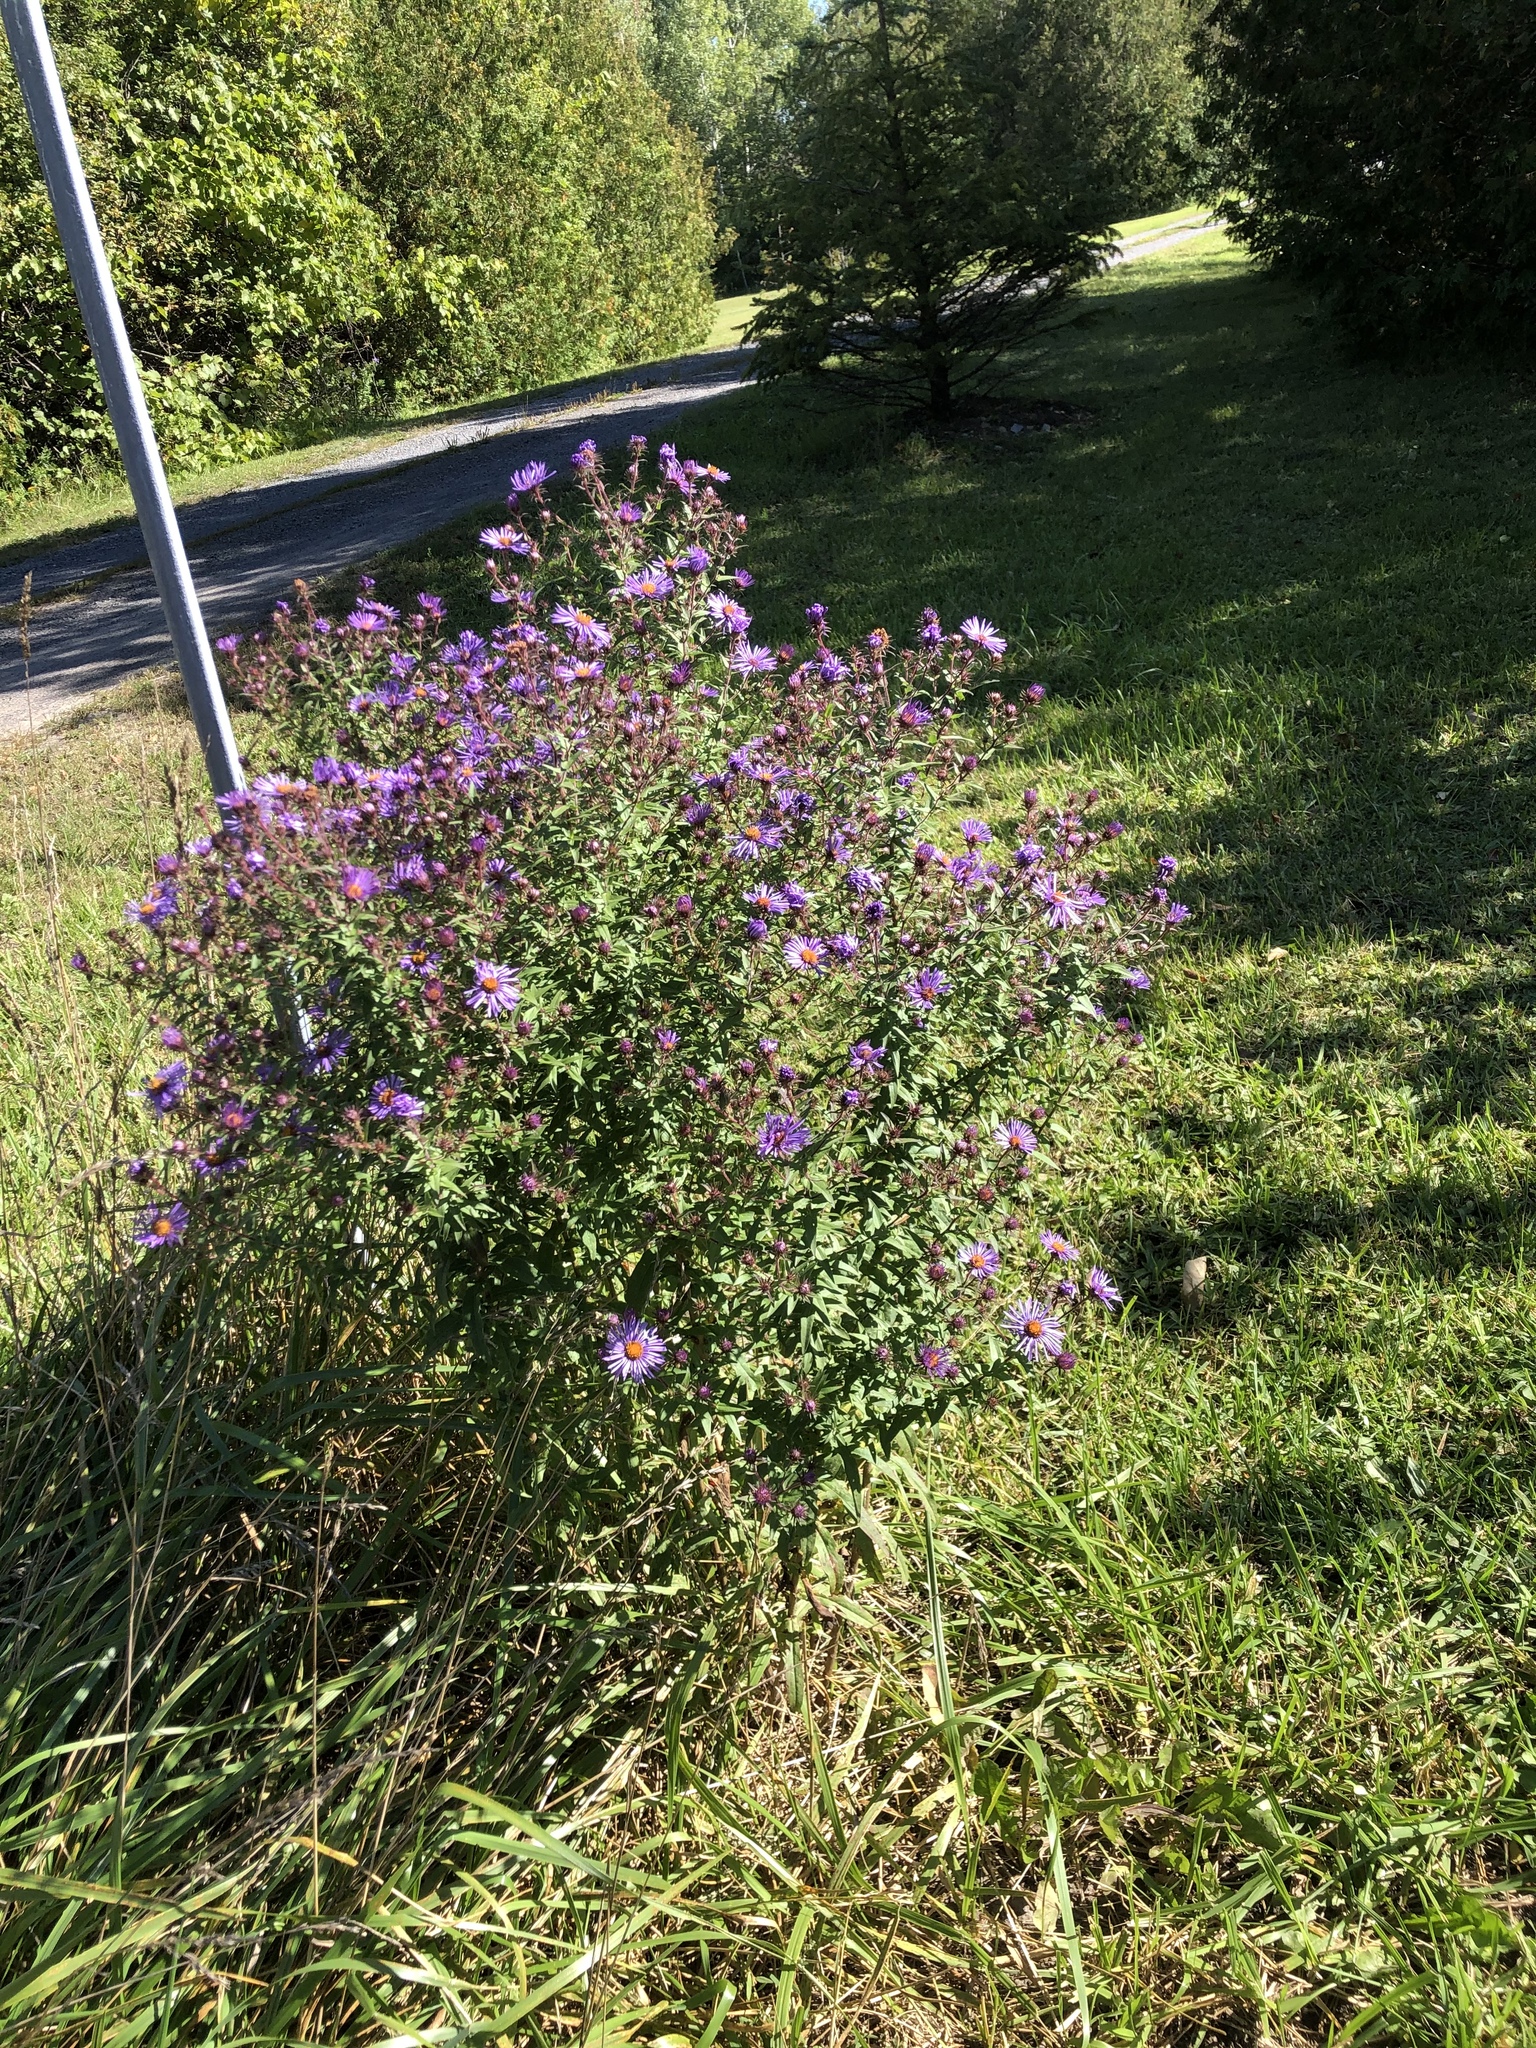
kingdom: Plantae
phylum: Tracheophyta
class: Magnoliopsida
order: Asterales
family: Asteraceae
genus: Symphyotrichum
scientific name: Symphyotrichum novae-angliae
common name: Michaelmas daisy
